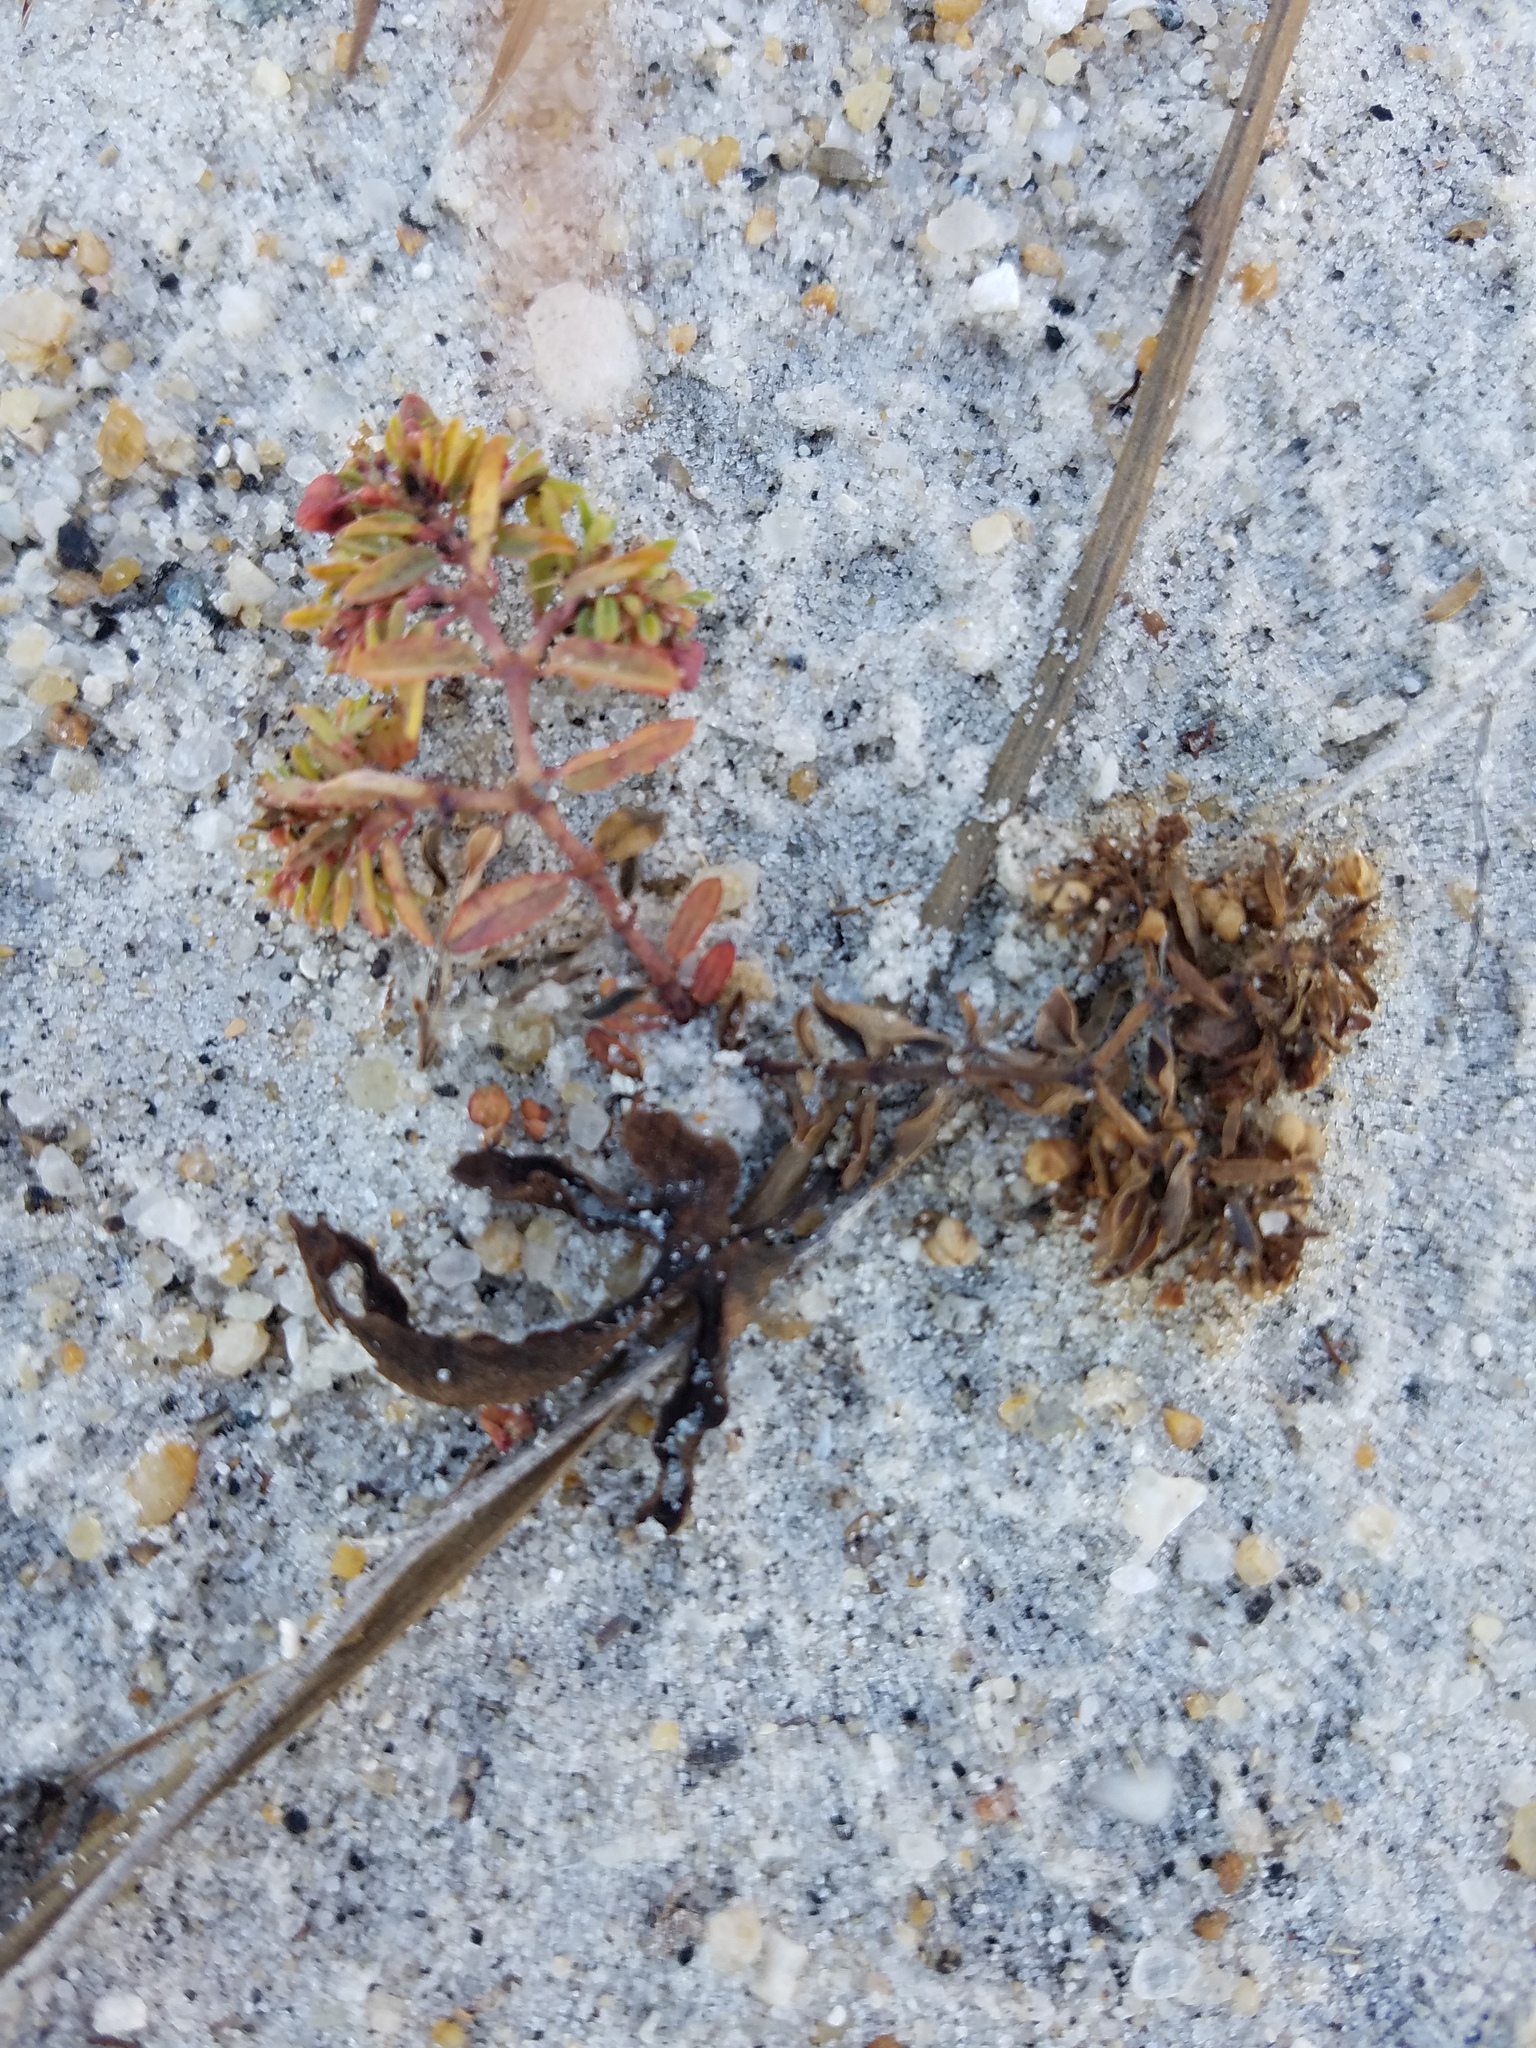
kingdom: Plantae
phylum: Tracheophyta
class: Magnoliopsida
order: Malpighiales
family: Euphorbiaceae
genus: Euphorbia
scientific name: Euphorbia bombensis
